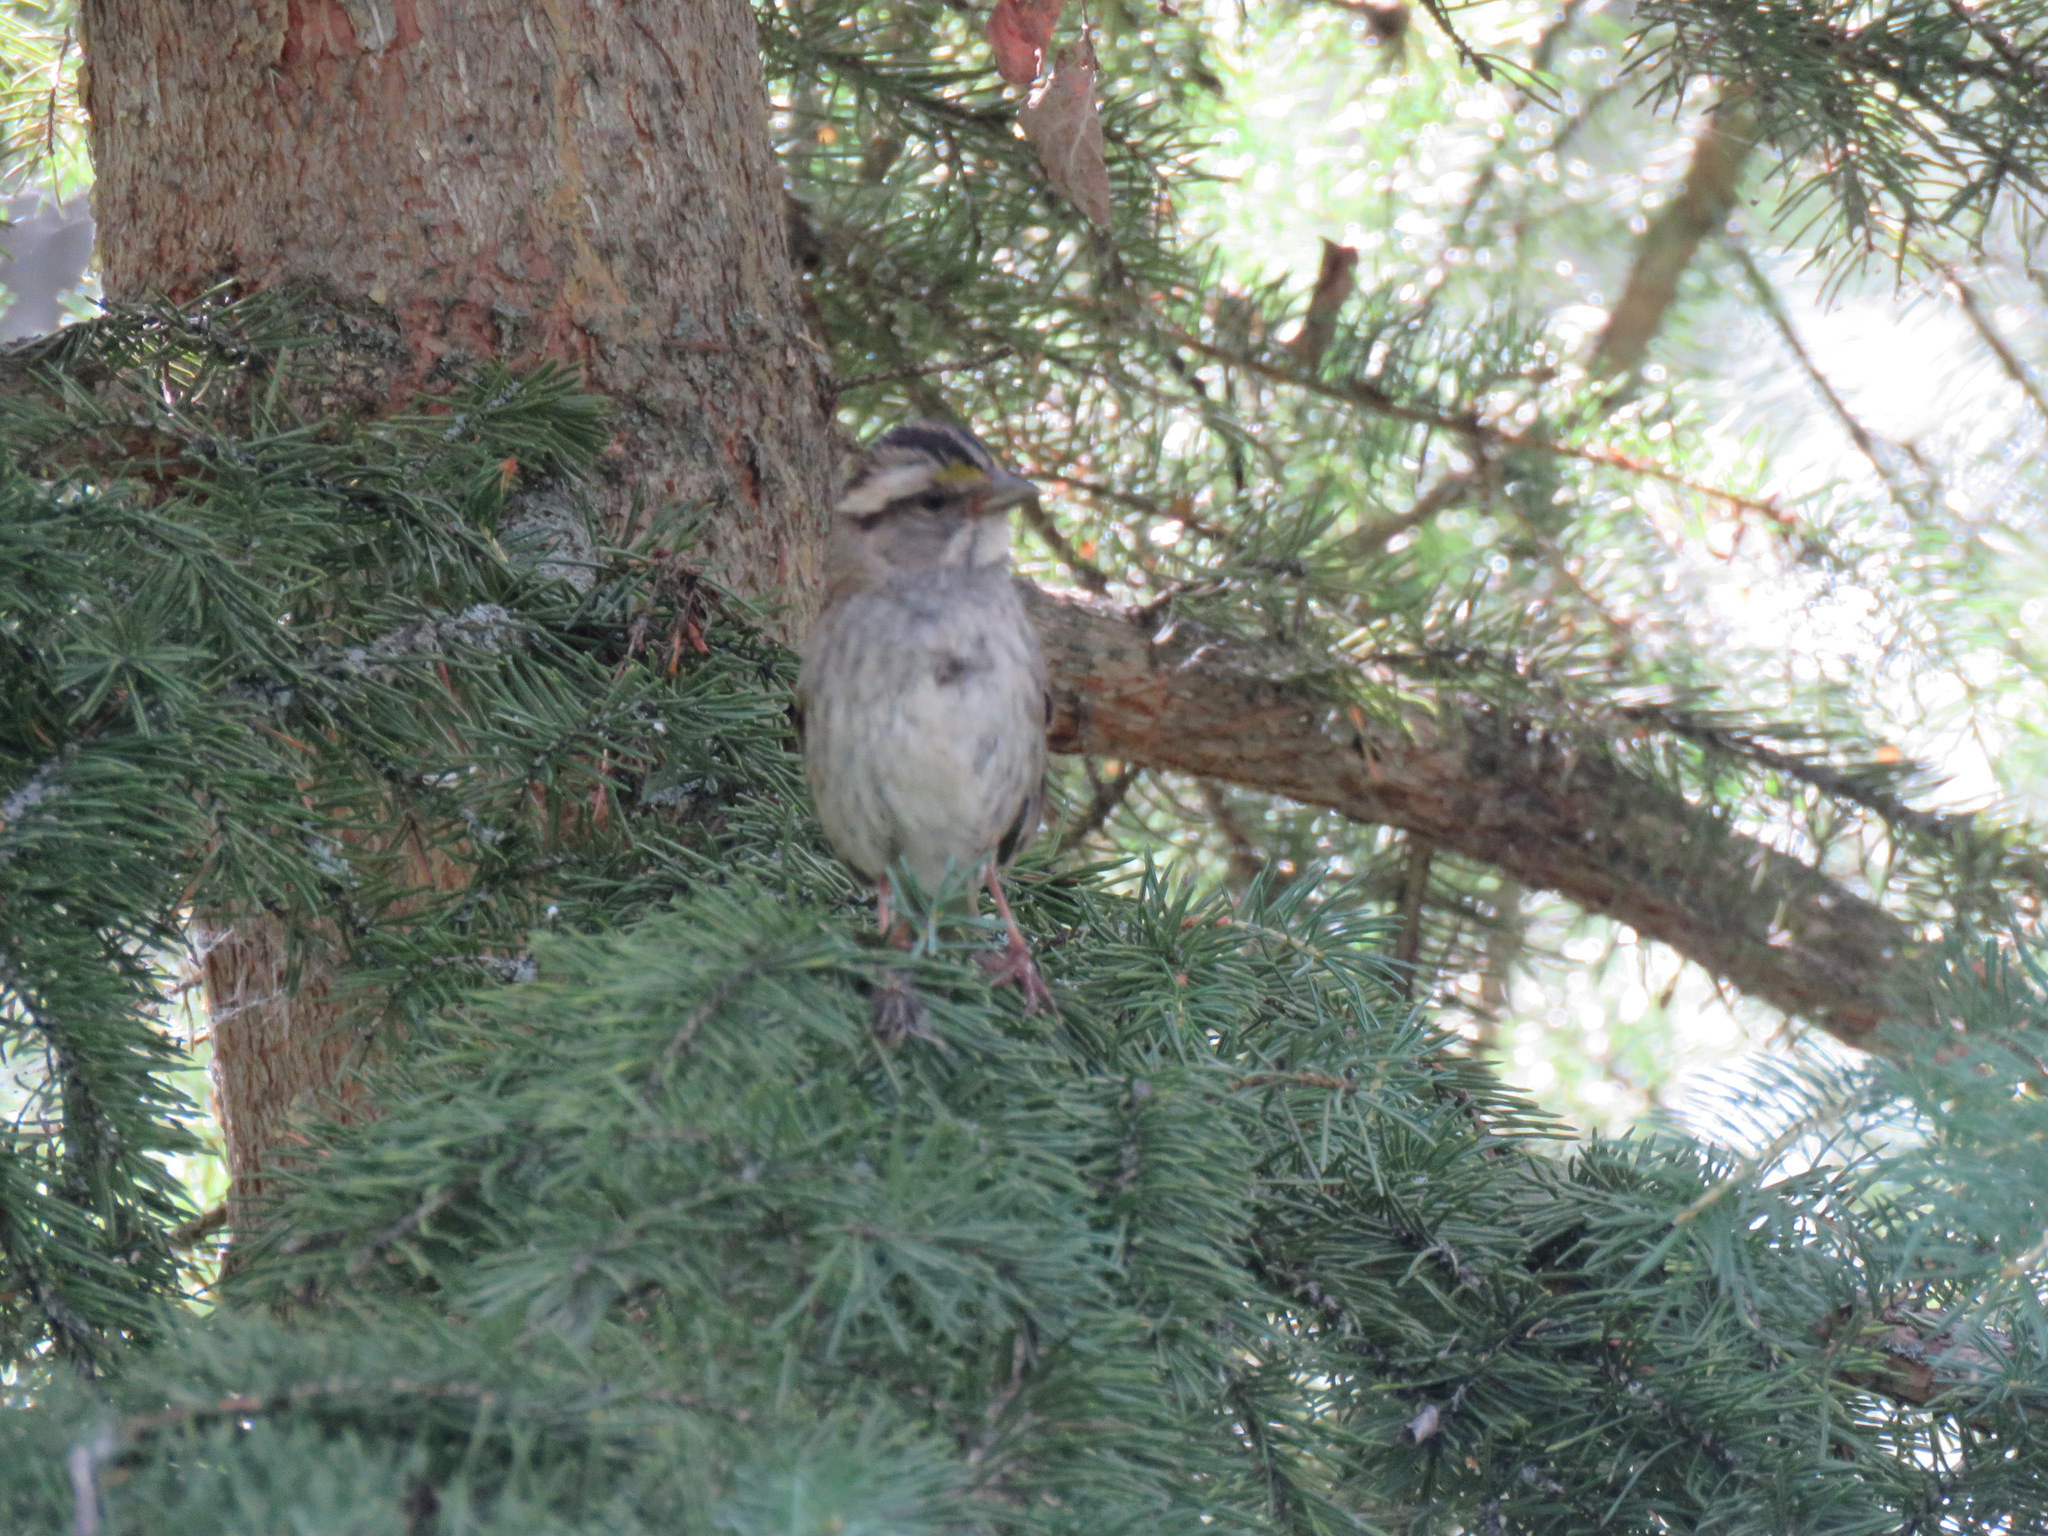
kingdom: Animalia
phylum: Chordata
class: Aves
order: Passeriformes
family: Passerellidae
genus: Zonotrichia
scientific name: Zonotrichia albicollis
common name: White-throated sparrow
